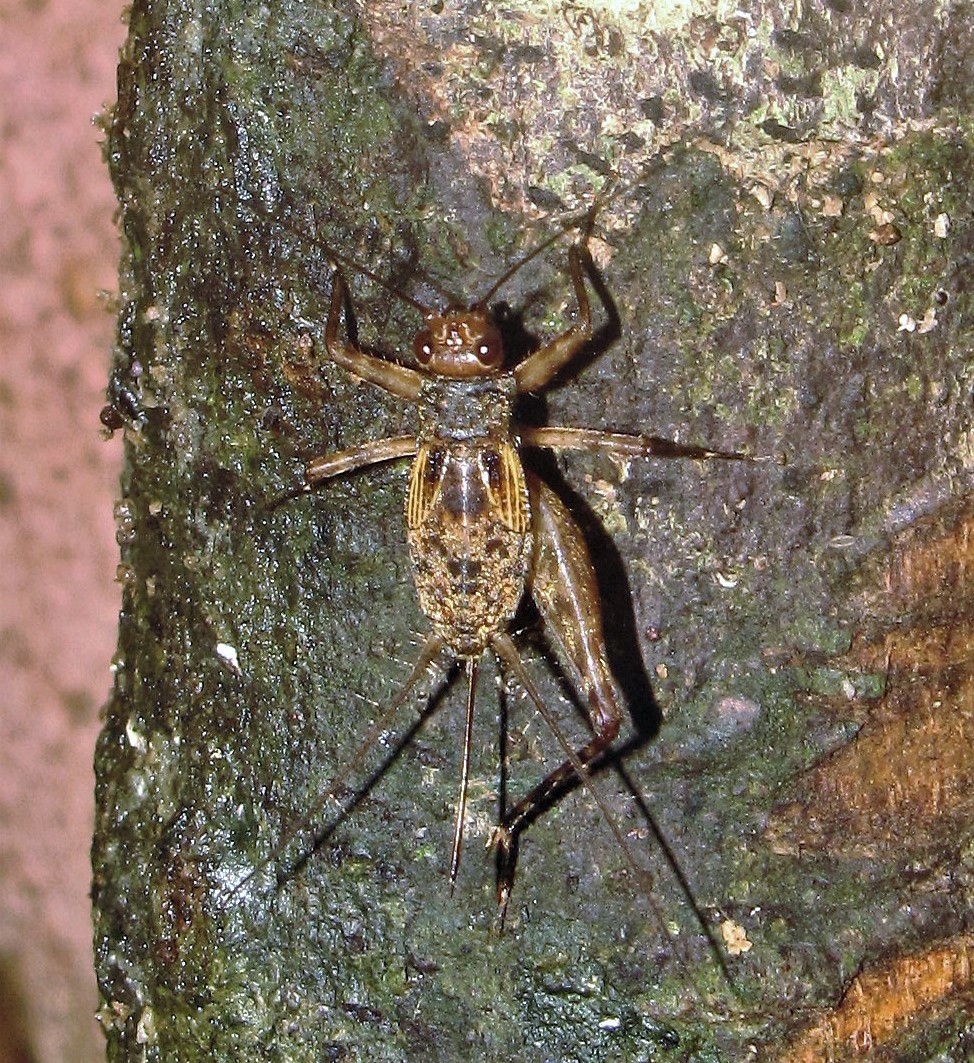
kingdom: Animalia
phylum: Arthropoda
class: Insecta
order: Orthoptera
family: Phalangopsidae
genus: Ubiquepuella
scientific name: Ubiquepuella telytokous
